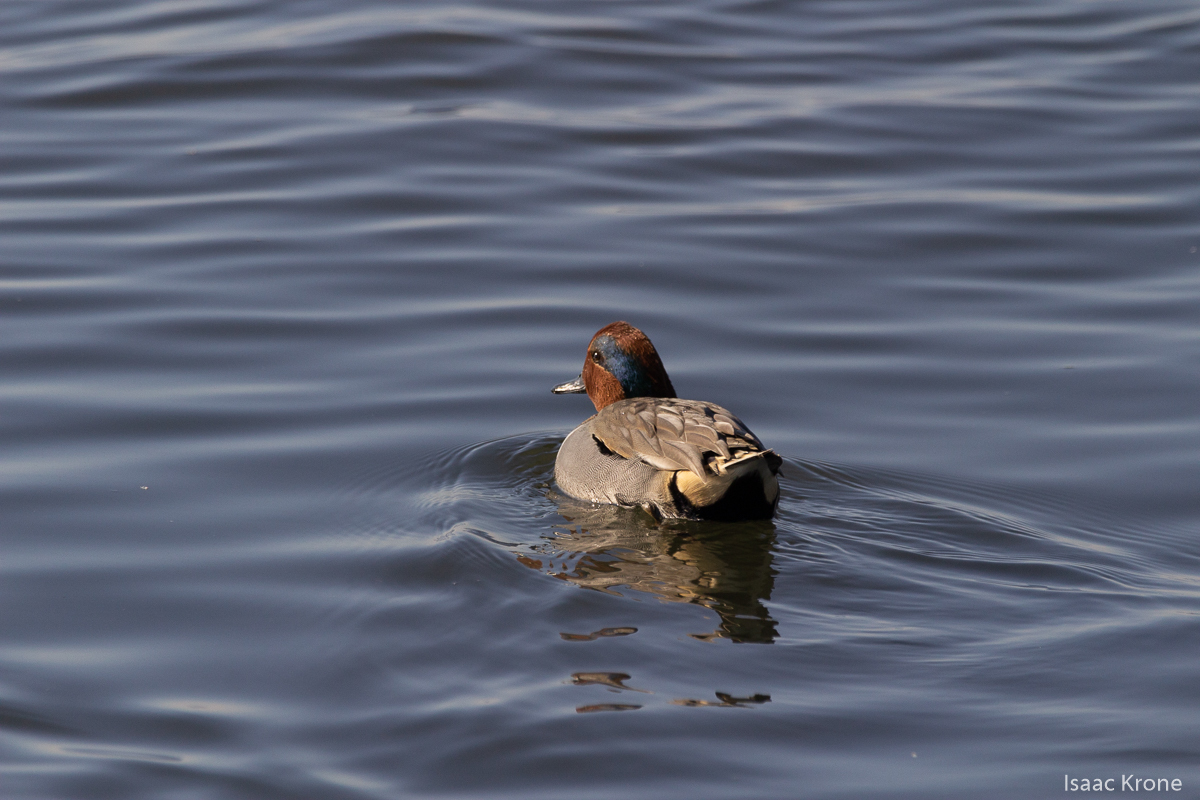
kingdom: Animalia
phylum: Chordata
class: Aves
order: Anseriformes
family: Anatidae
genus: Anas
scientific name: Anas crecca
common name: Eurasian teal
